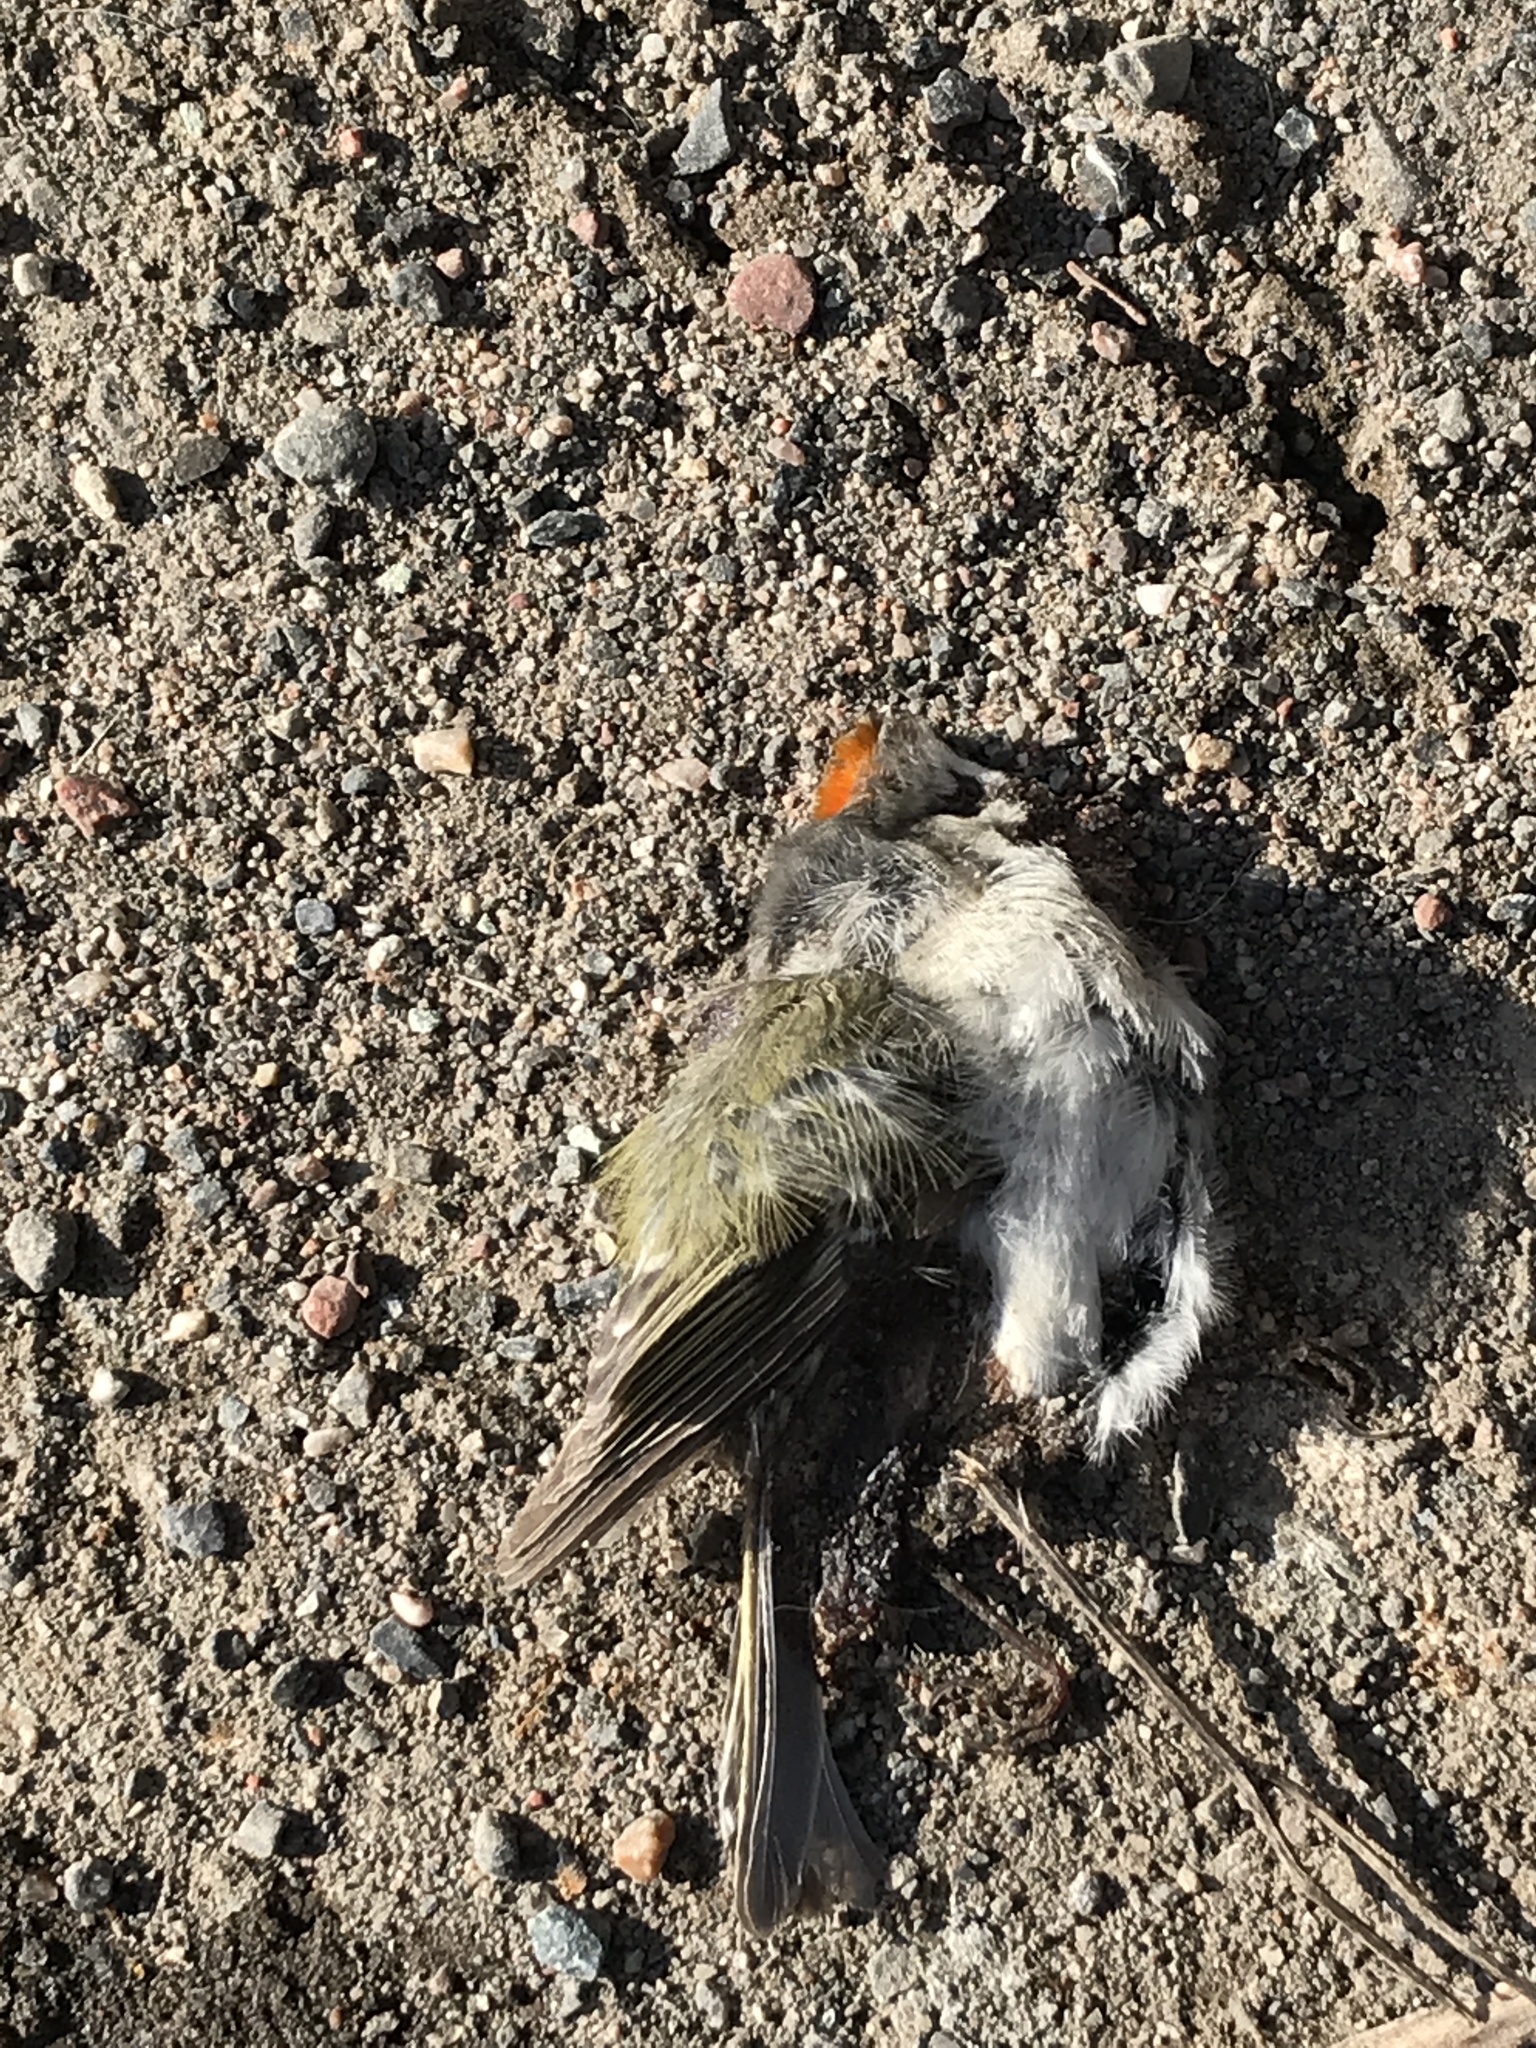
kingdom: Animalia
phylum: Chordata
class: Aves
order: Passeriformes
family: Regulidae
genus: Regulus
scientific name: Regulus satrapa
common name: Golden-crowned kinglet
